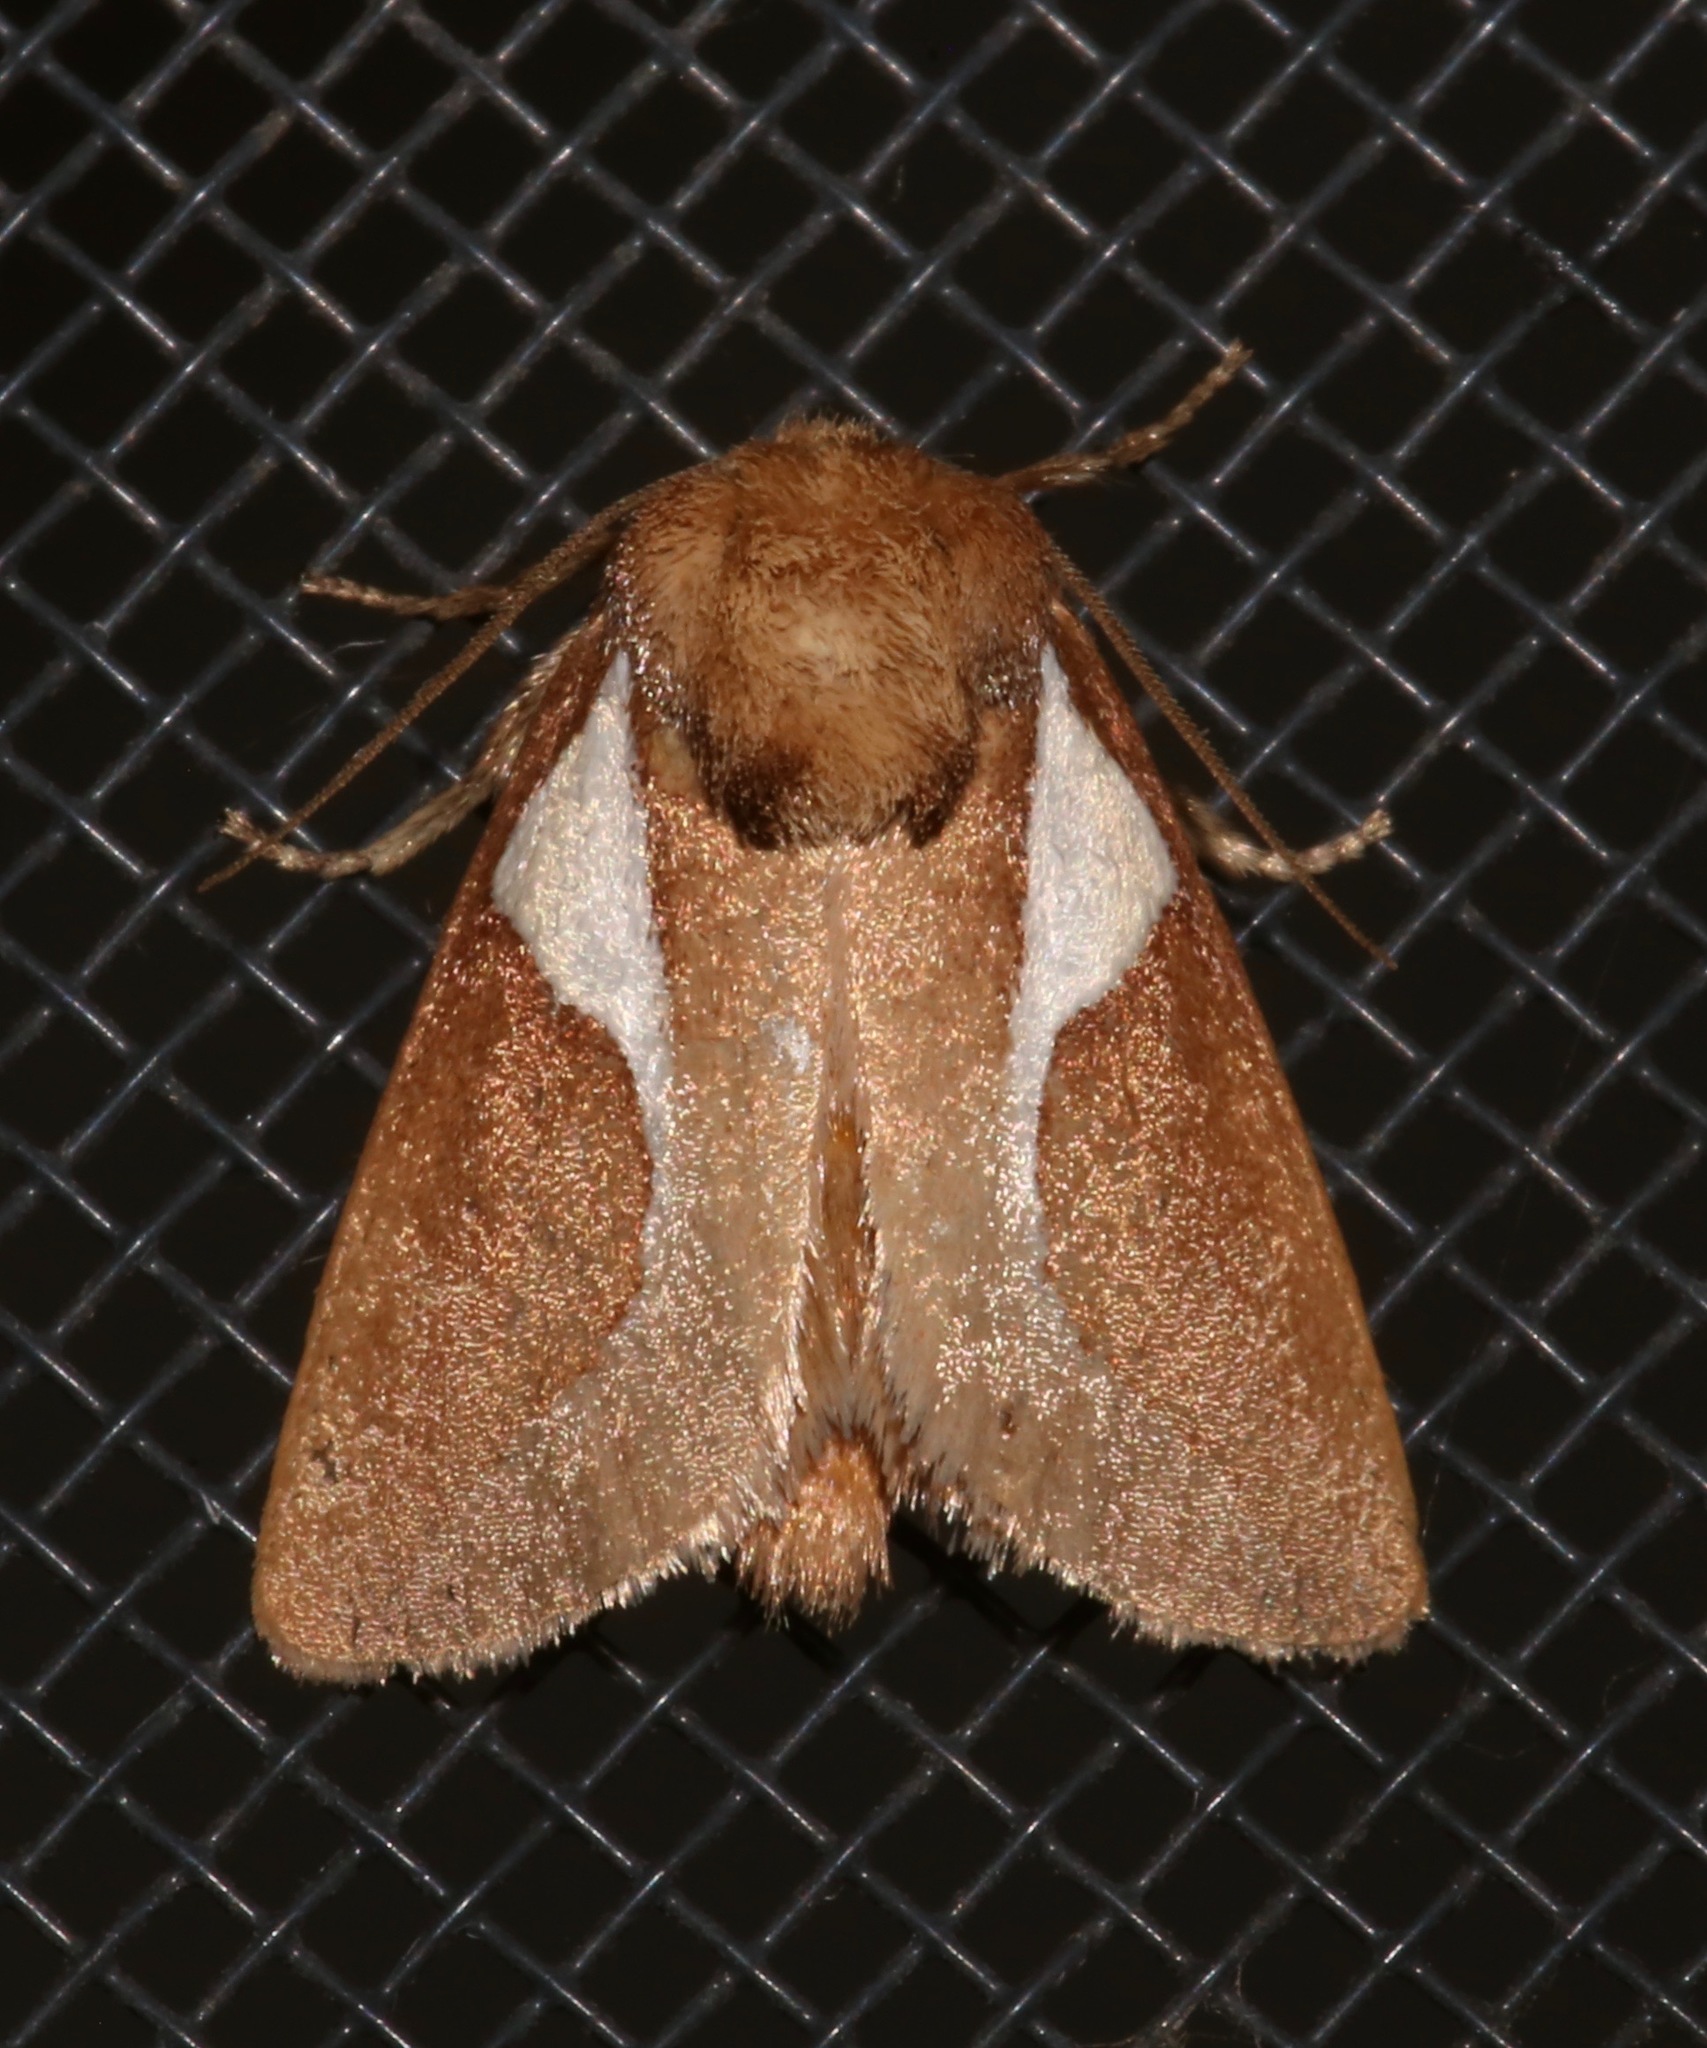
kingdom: Animalia
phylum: Arthropoda
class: Insecta
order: Lepidoptera
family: Limacodidae
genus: Prolimacodes
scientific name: Prolimacodes trigona
